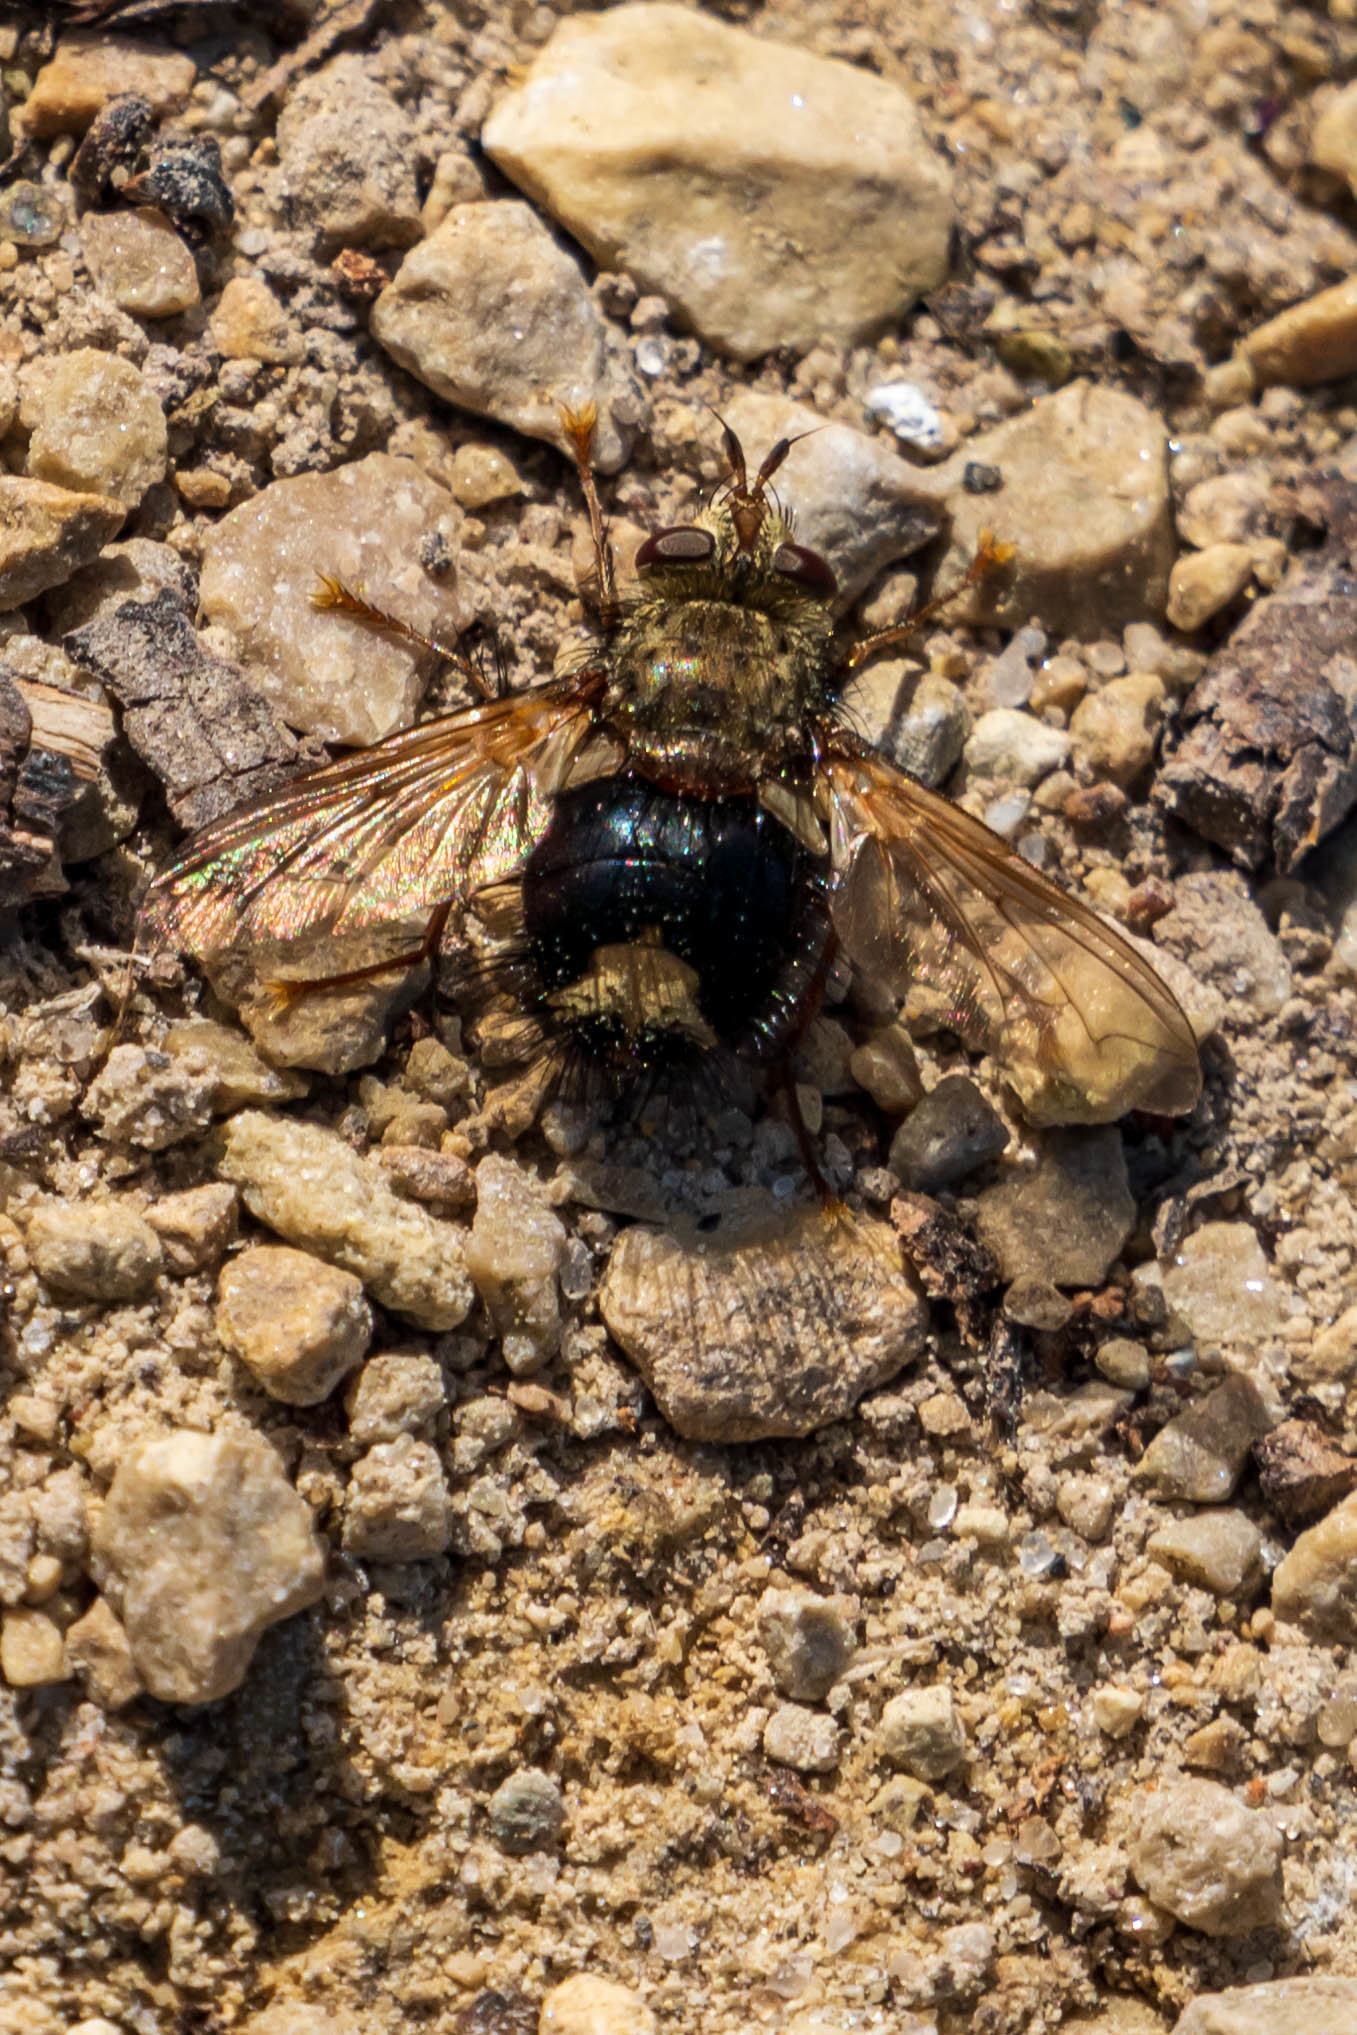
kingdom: Animalia
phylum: Arthropoda
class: Insecta
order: Diptera
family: Tachinidae
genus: Epalpus
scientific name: Epalpus signifer
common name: Early tachinid fly
